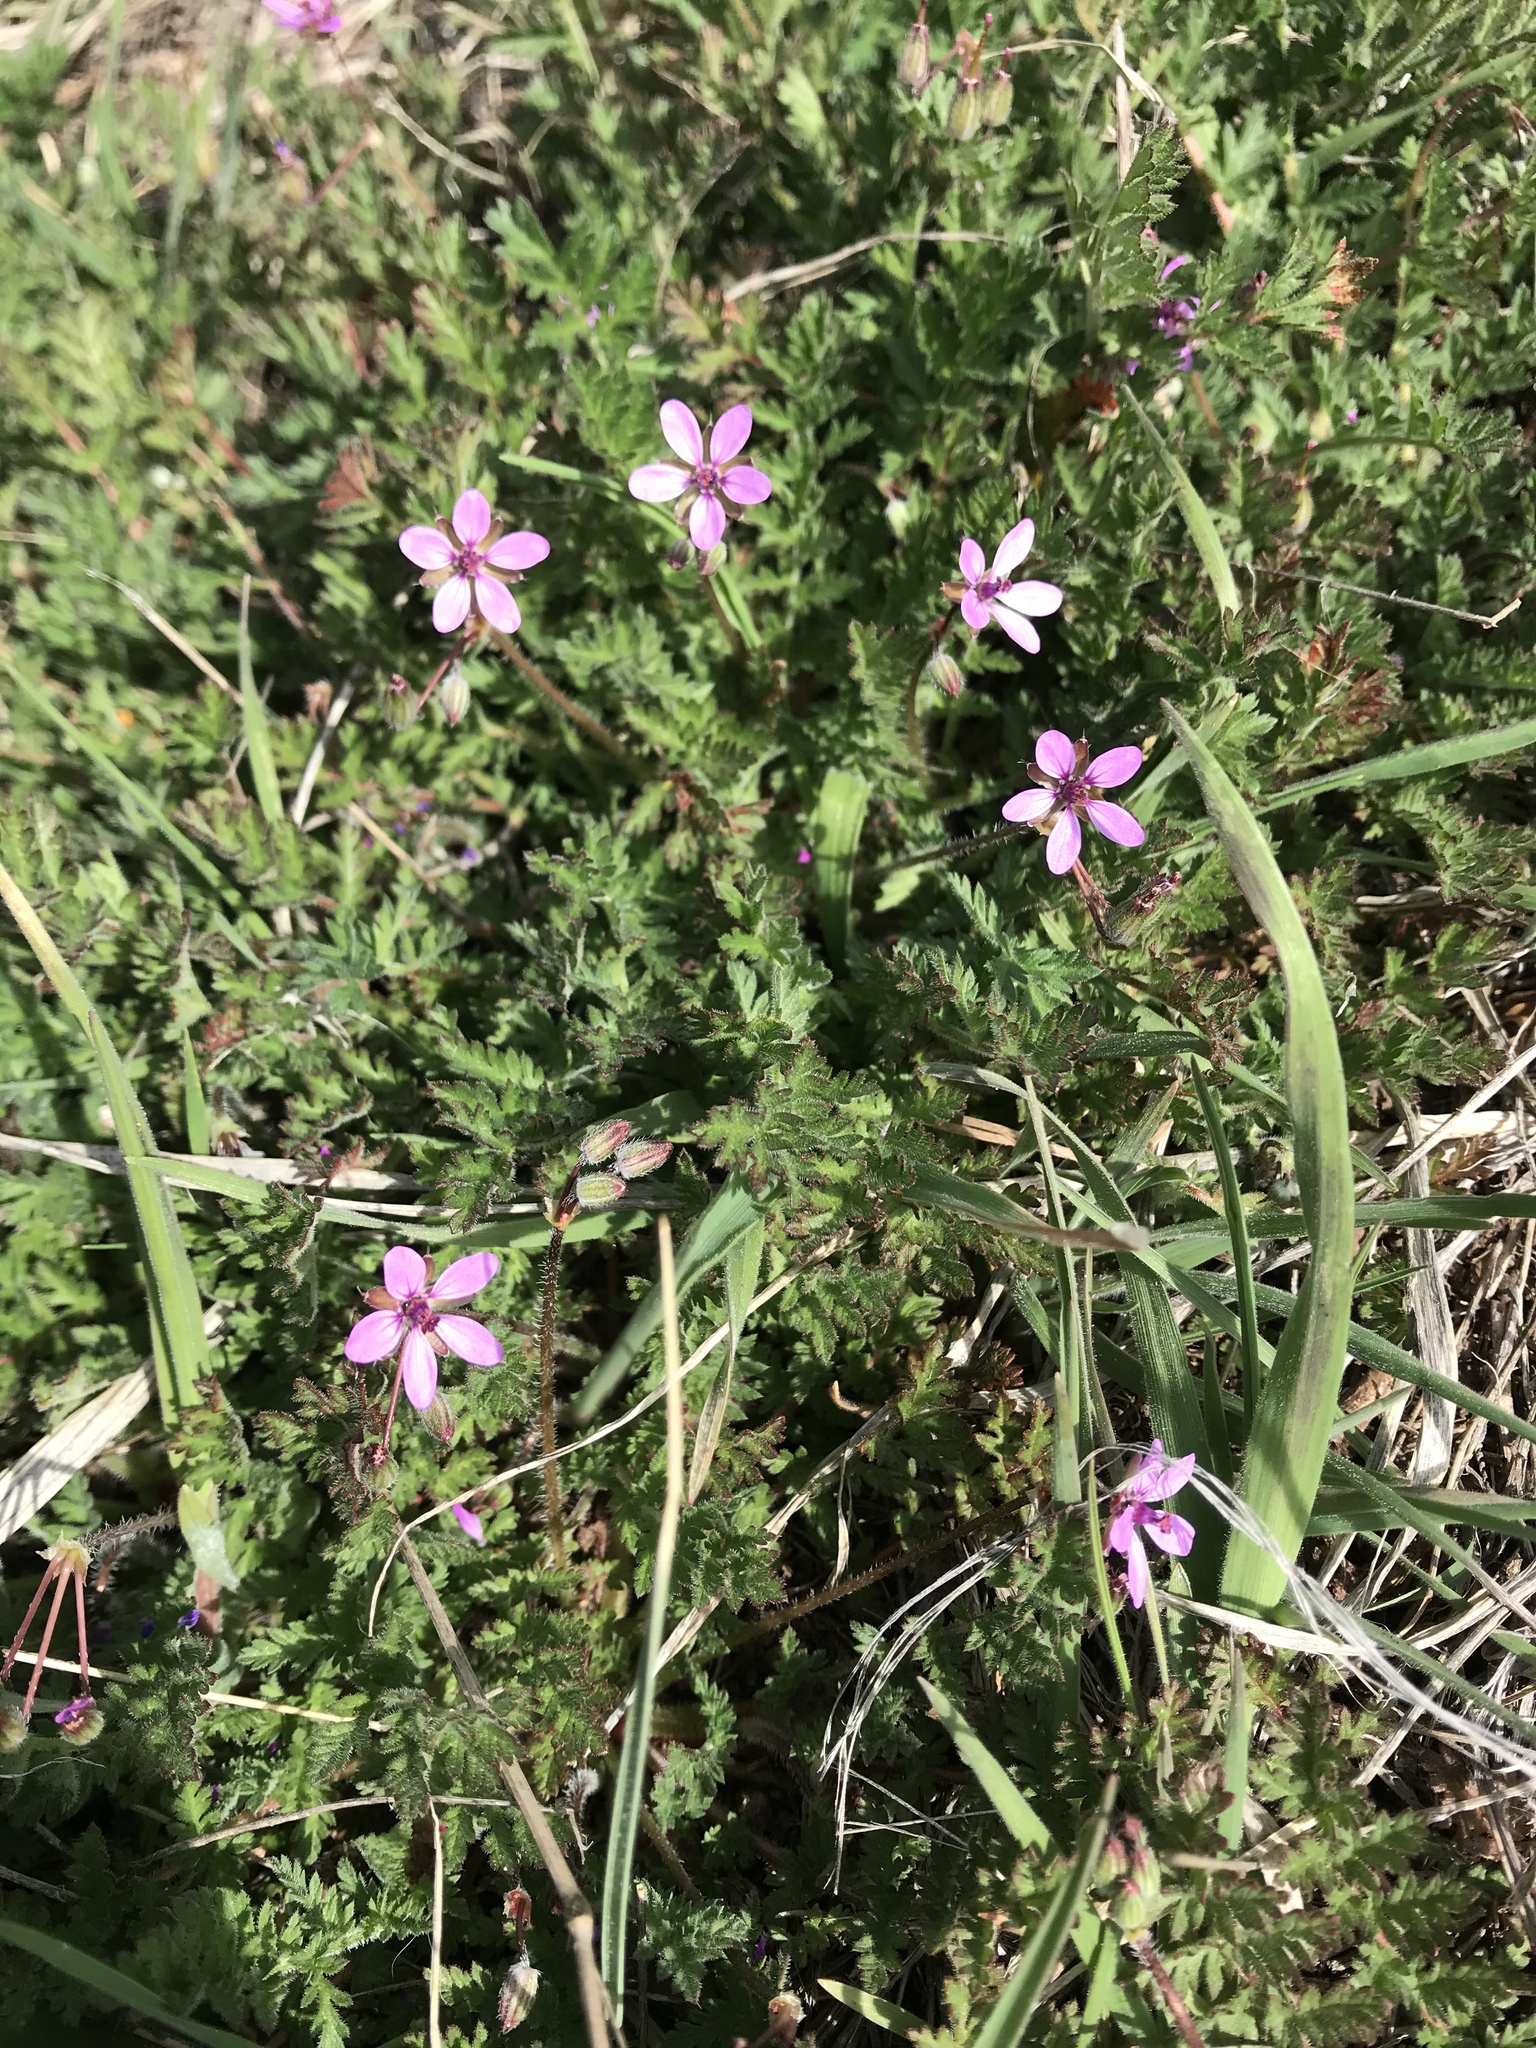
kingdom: Plantae
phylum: Tracheophyta
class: Magnoliopsida
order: Geraniales
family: Geraniaceae
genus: Erodium
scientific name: Erodium cicutarium
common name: Common stork's-bill
